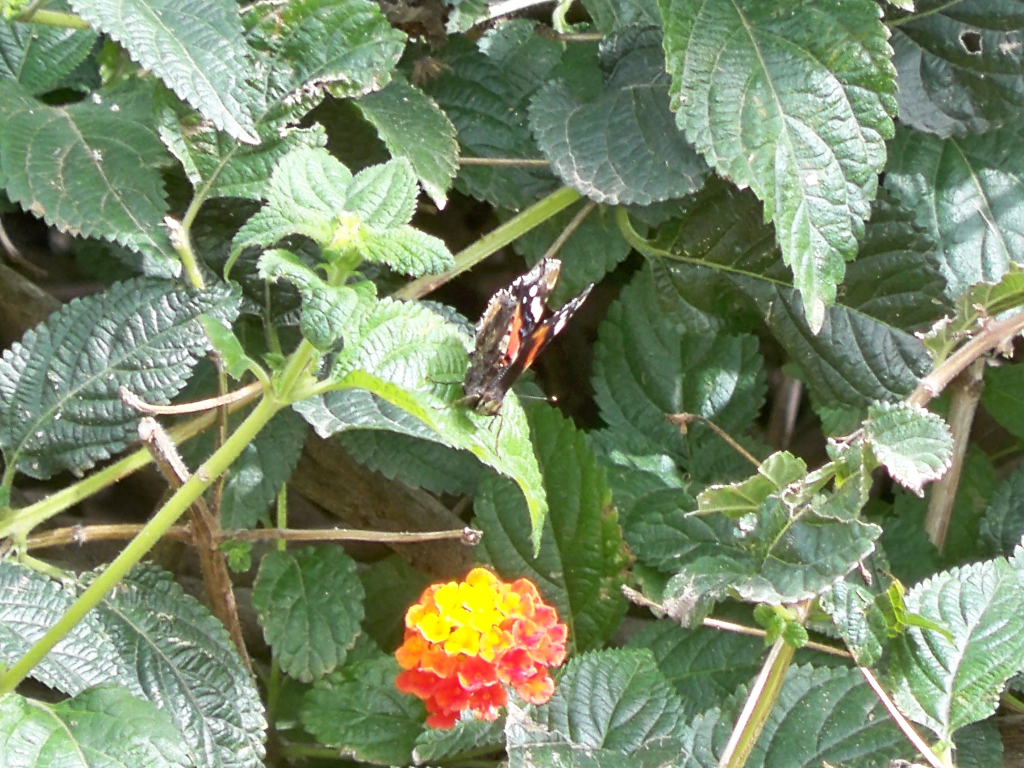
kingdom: Animalia
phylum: Arthropoda
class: Insecta
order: Lepidoptera
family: Nymphalidae
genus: Vanessa
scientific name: Vanessa atalanta
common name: Red admiral
